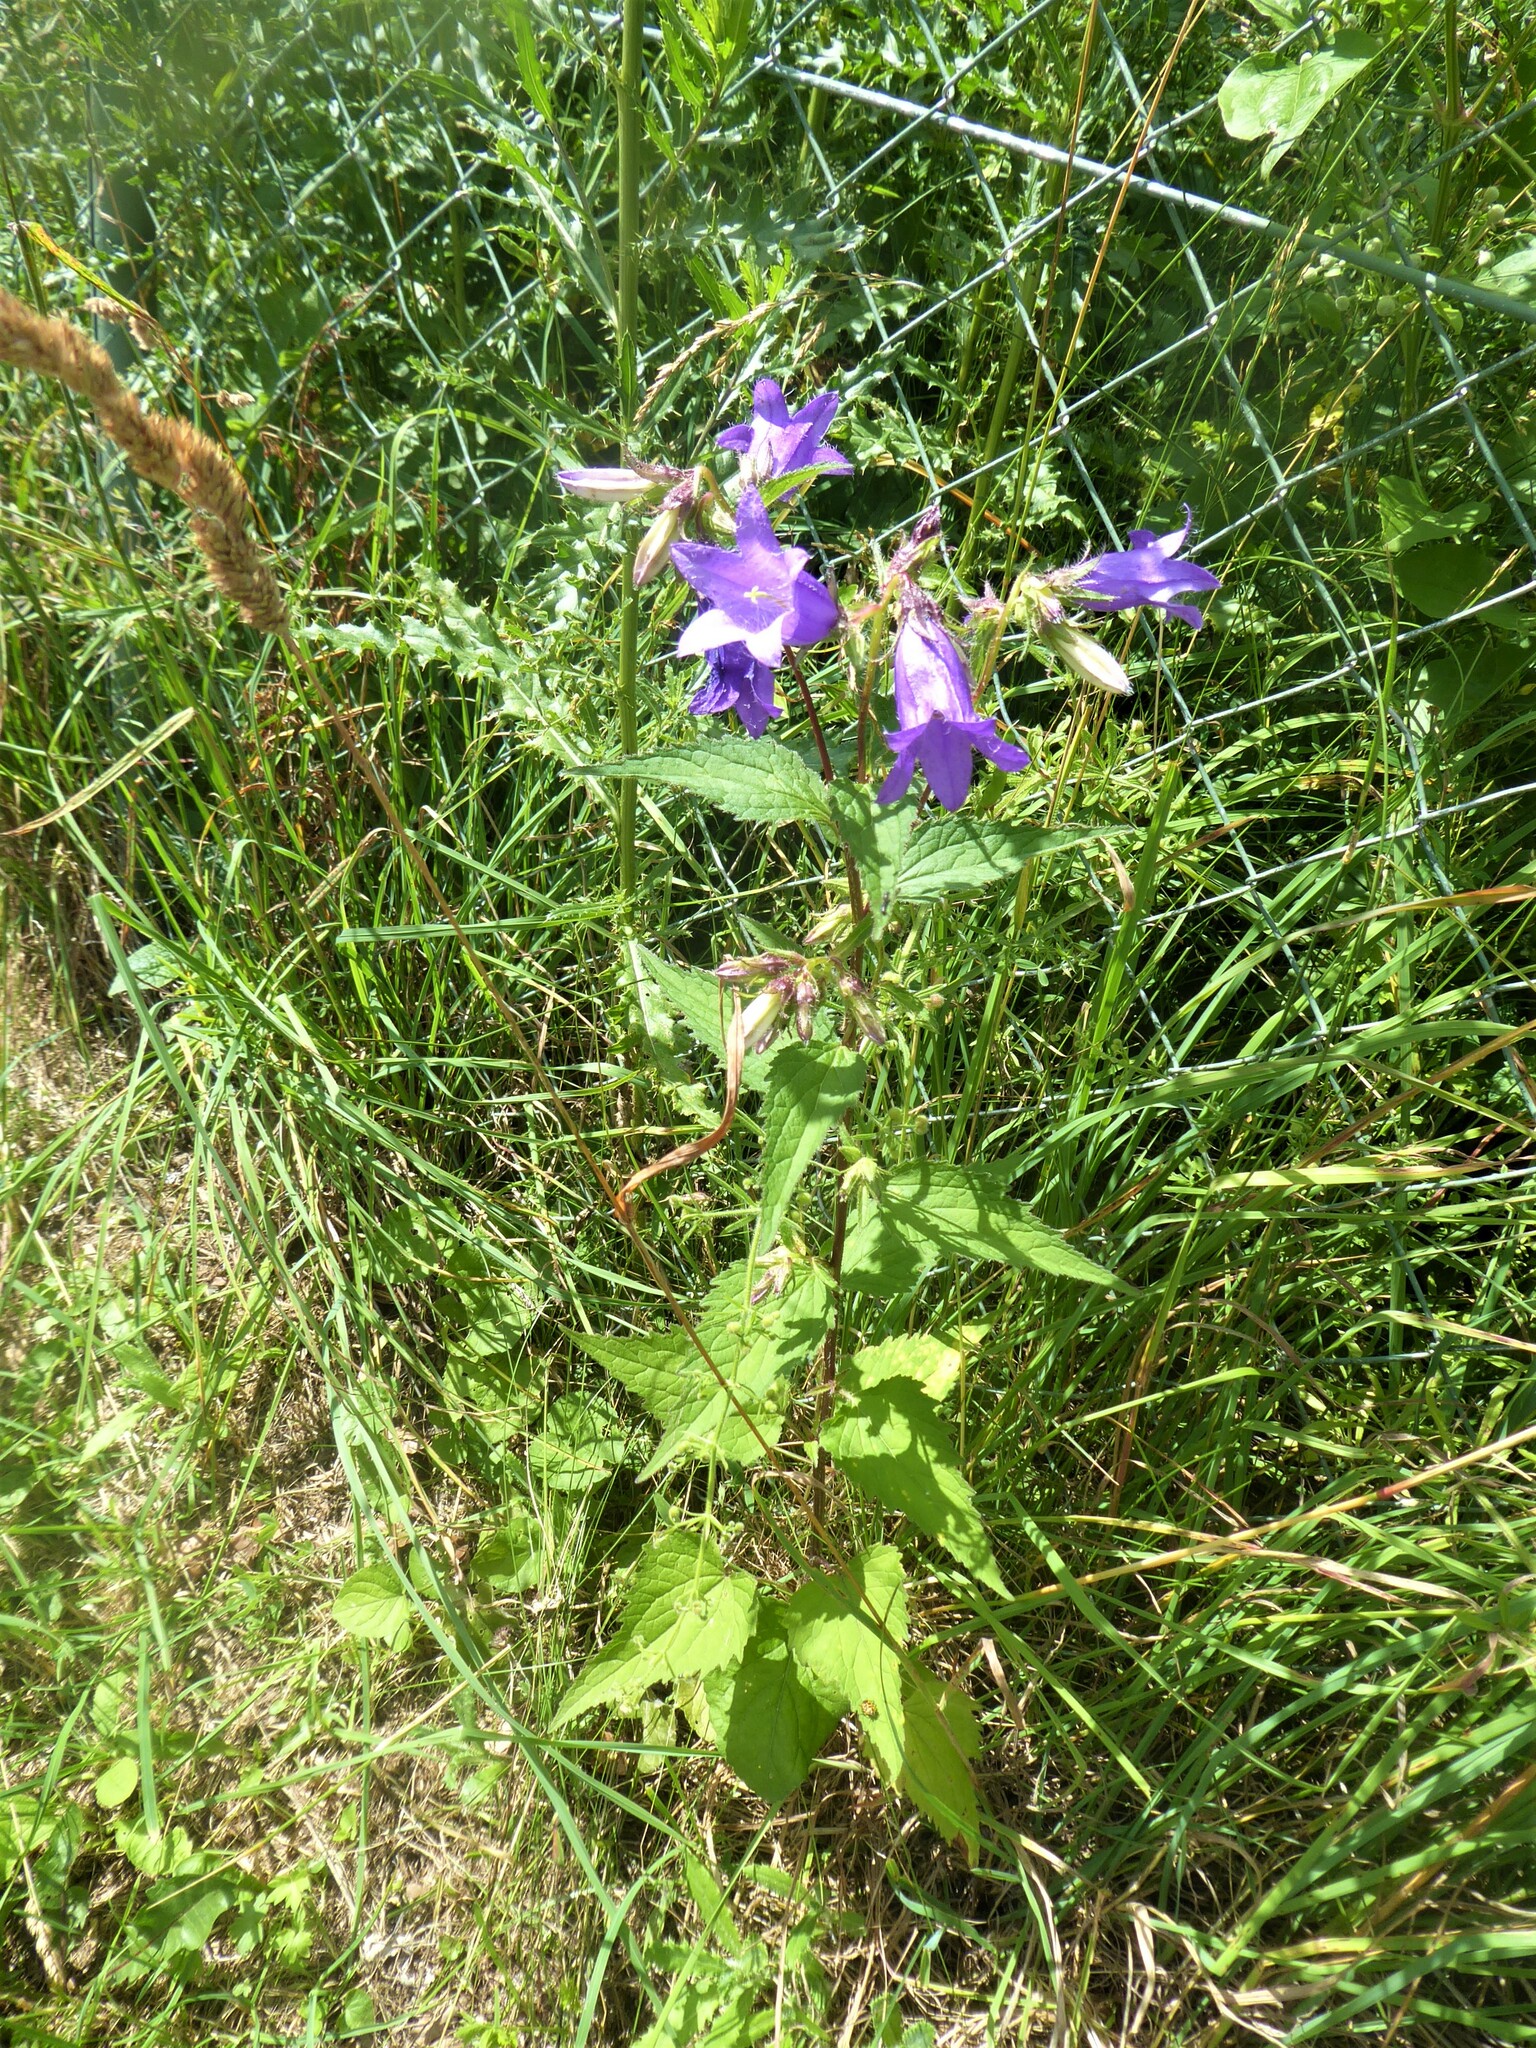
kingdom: Plantae
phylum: Tracheophyta
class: Magnoliopsida
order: Asterales
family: Campanulaceae
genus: Campanula
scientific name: Campanula trachelium
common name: Nettle-leaved bellflower
